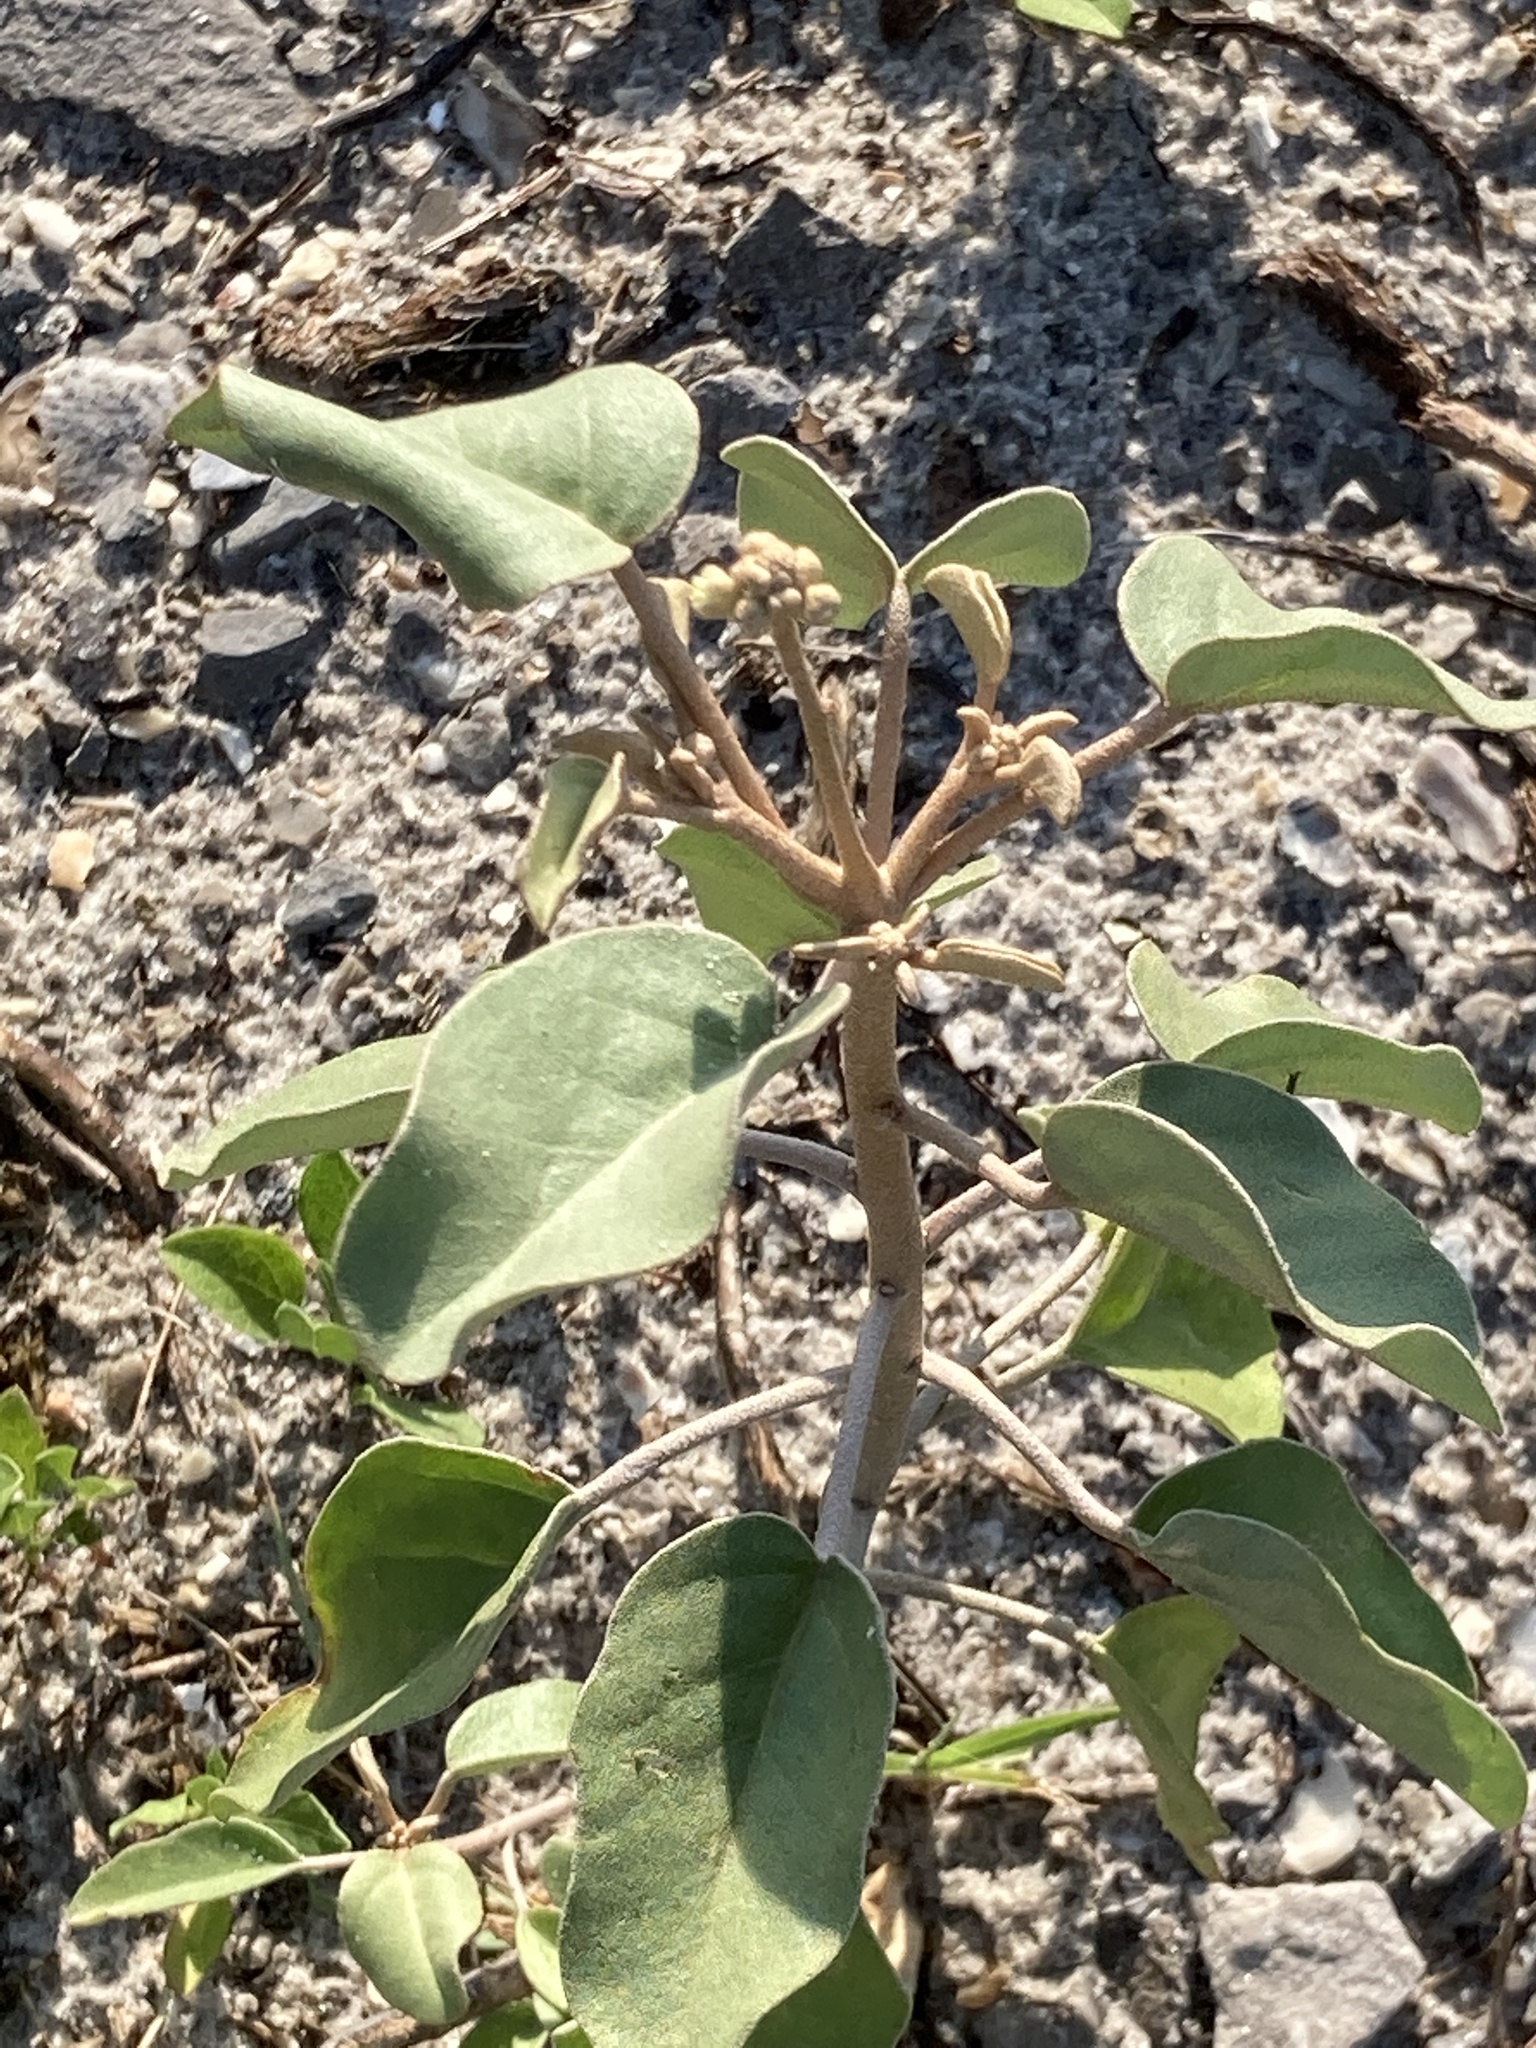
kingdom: Plantae
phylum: Tracheophyta
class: Magnoliopsida
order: Malpighiales
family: Euphorbiaceae
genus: Croton
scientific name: Croton punctatus
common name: Beach-tea
